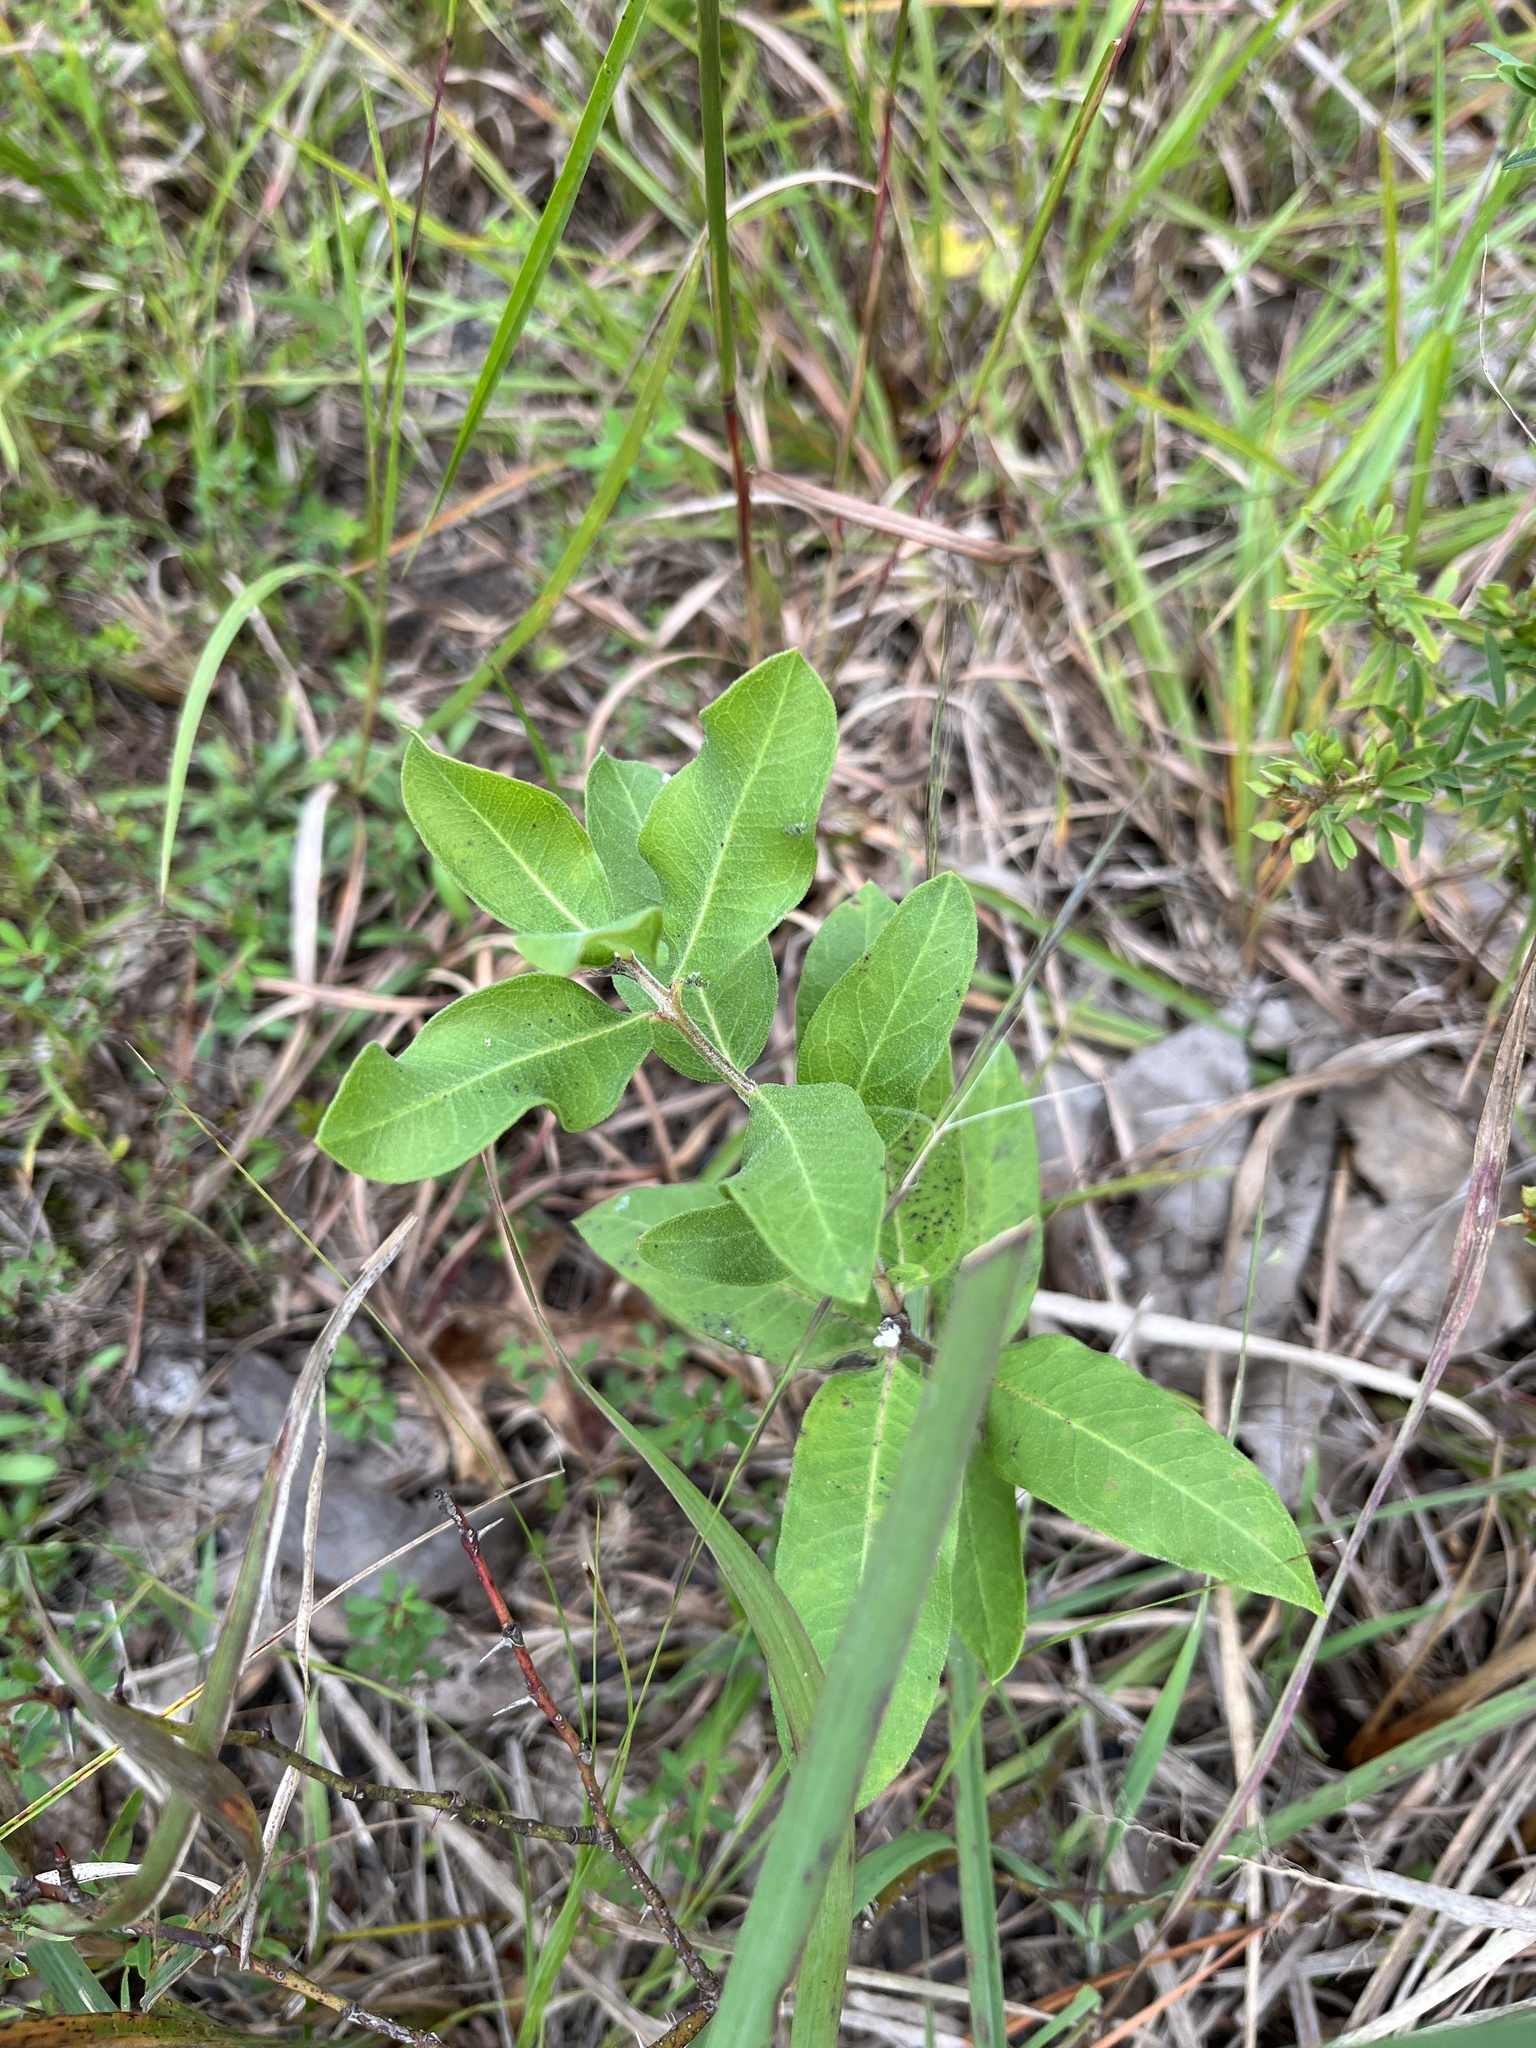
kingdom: Plantae
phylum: Tracheophyta
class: Magnoliopsida
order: Gentianales
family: Apocynaceae
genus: Asclepias
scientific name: Asclepias viridiflora
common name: Green comet milkweed
